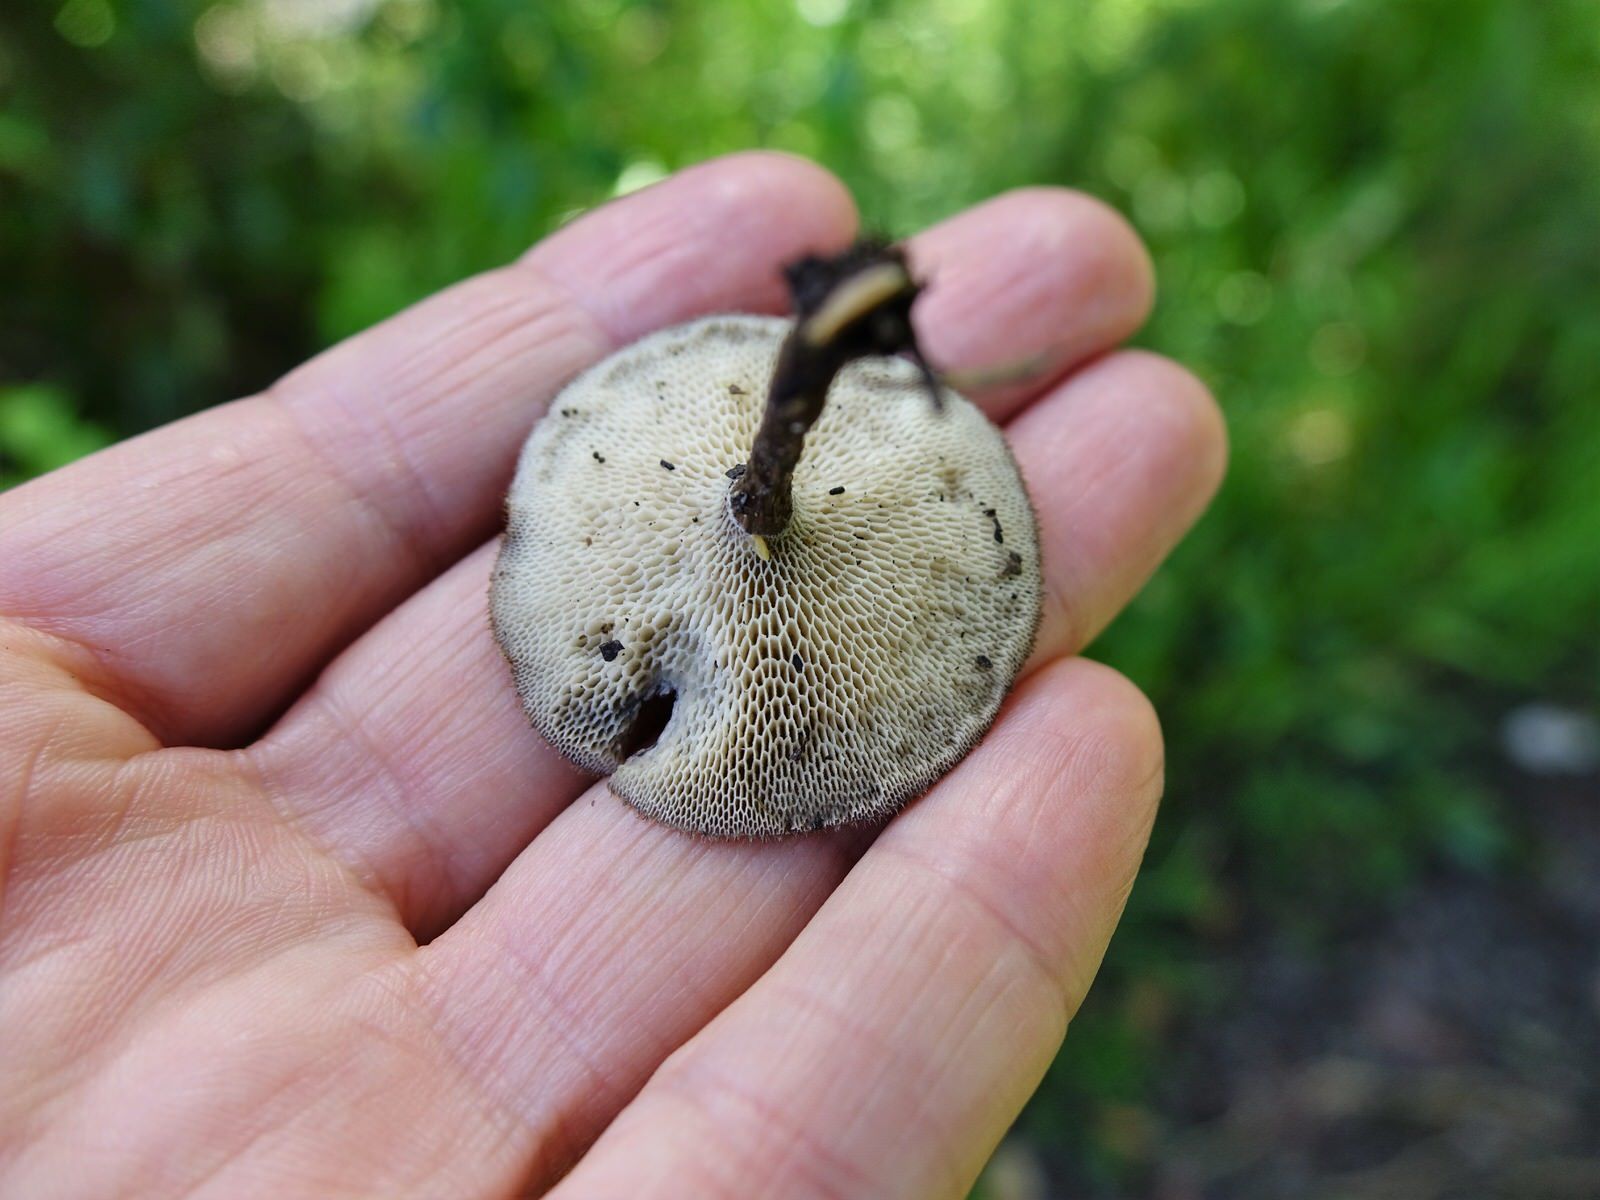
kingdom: Fungi
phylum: Basidiomycota
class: Agaricomycetes
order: Polyporales
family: Polyporaceae
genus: Lentinus
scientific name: Lentinus arcularius
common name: Spring polypore
